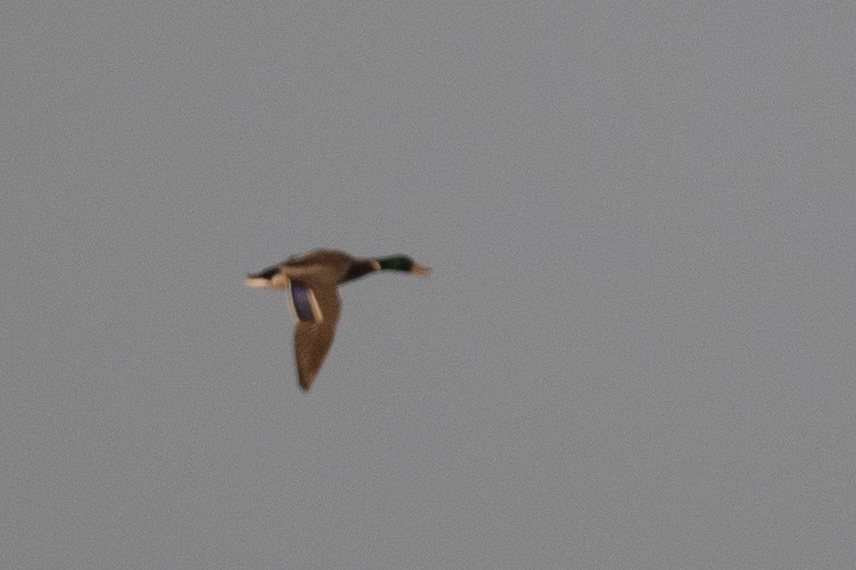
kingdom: Animalia
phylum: Chordata
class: Aves
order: Anseriformes
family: Anatidae
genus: Anas
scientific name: Anas platyrhynchos
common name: Mallard
